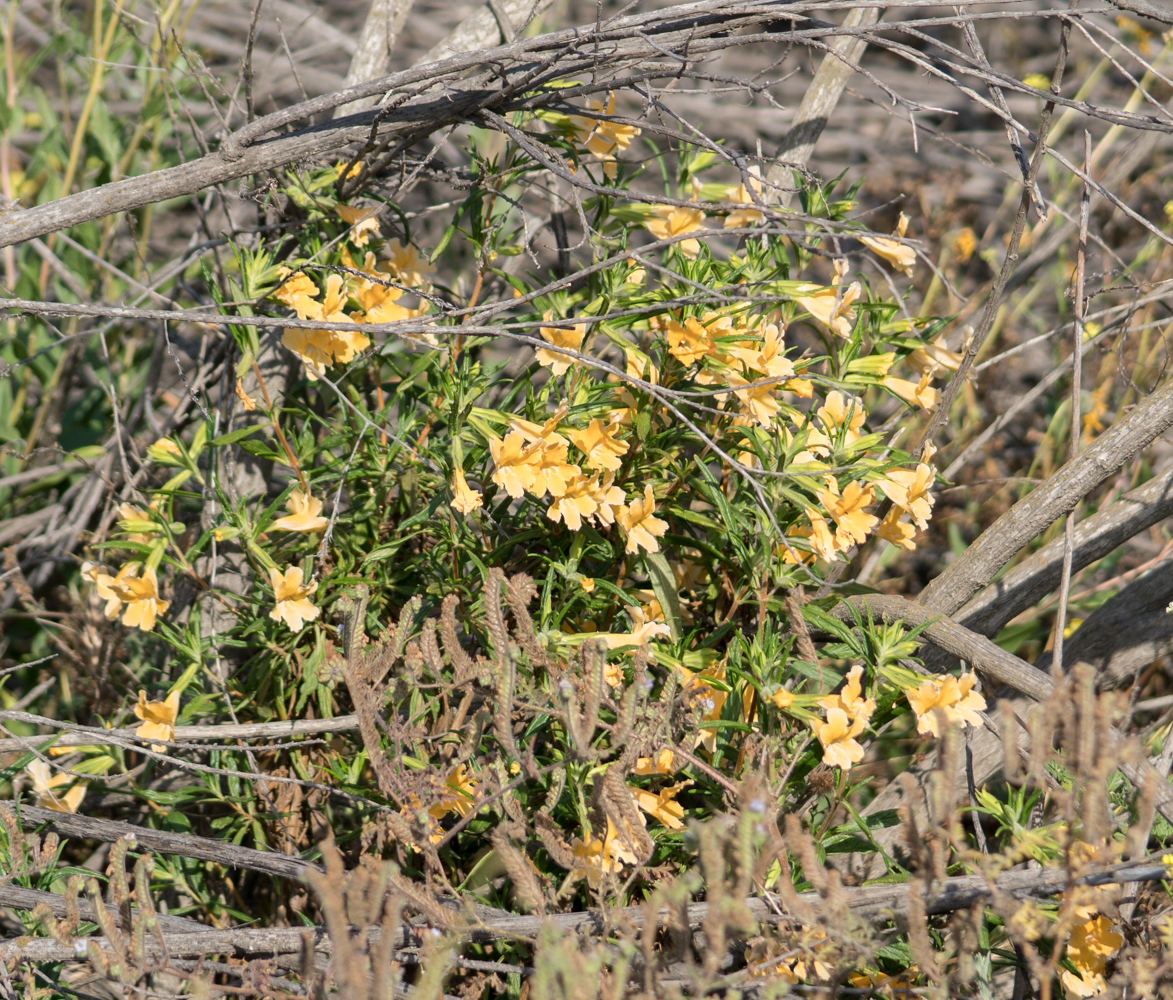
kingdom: Plantae
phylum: Tracheophyta
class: Magnoliopsida
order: Lamiales
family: Phrymaceae
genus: Diplacus
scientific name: Diplacus australis
